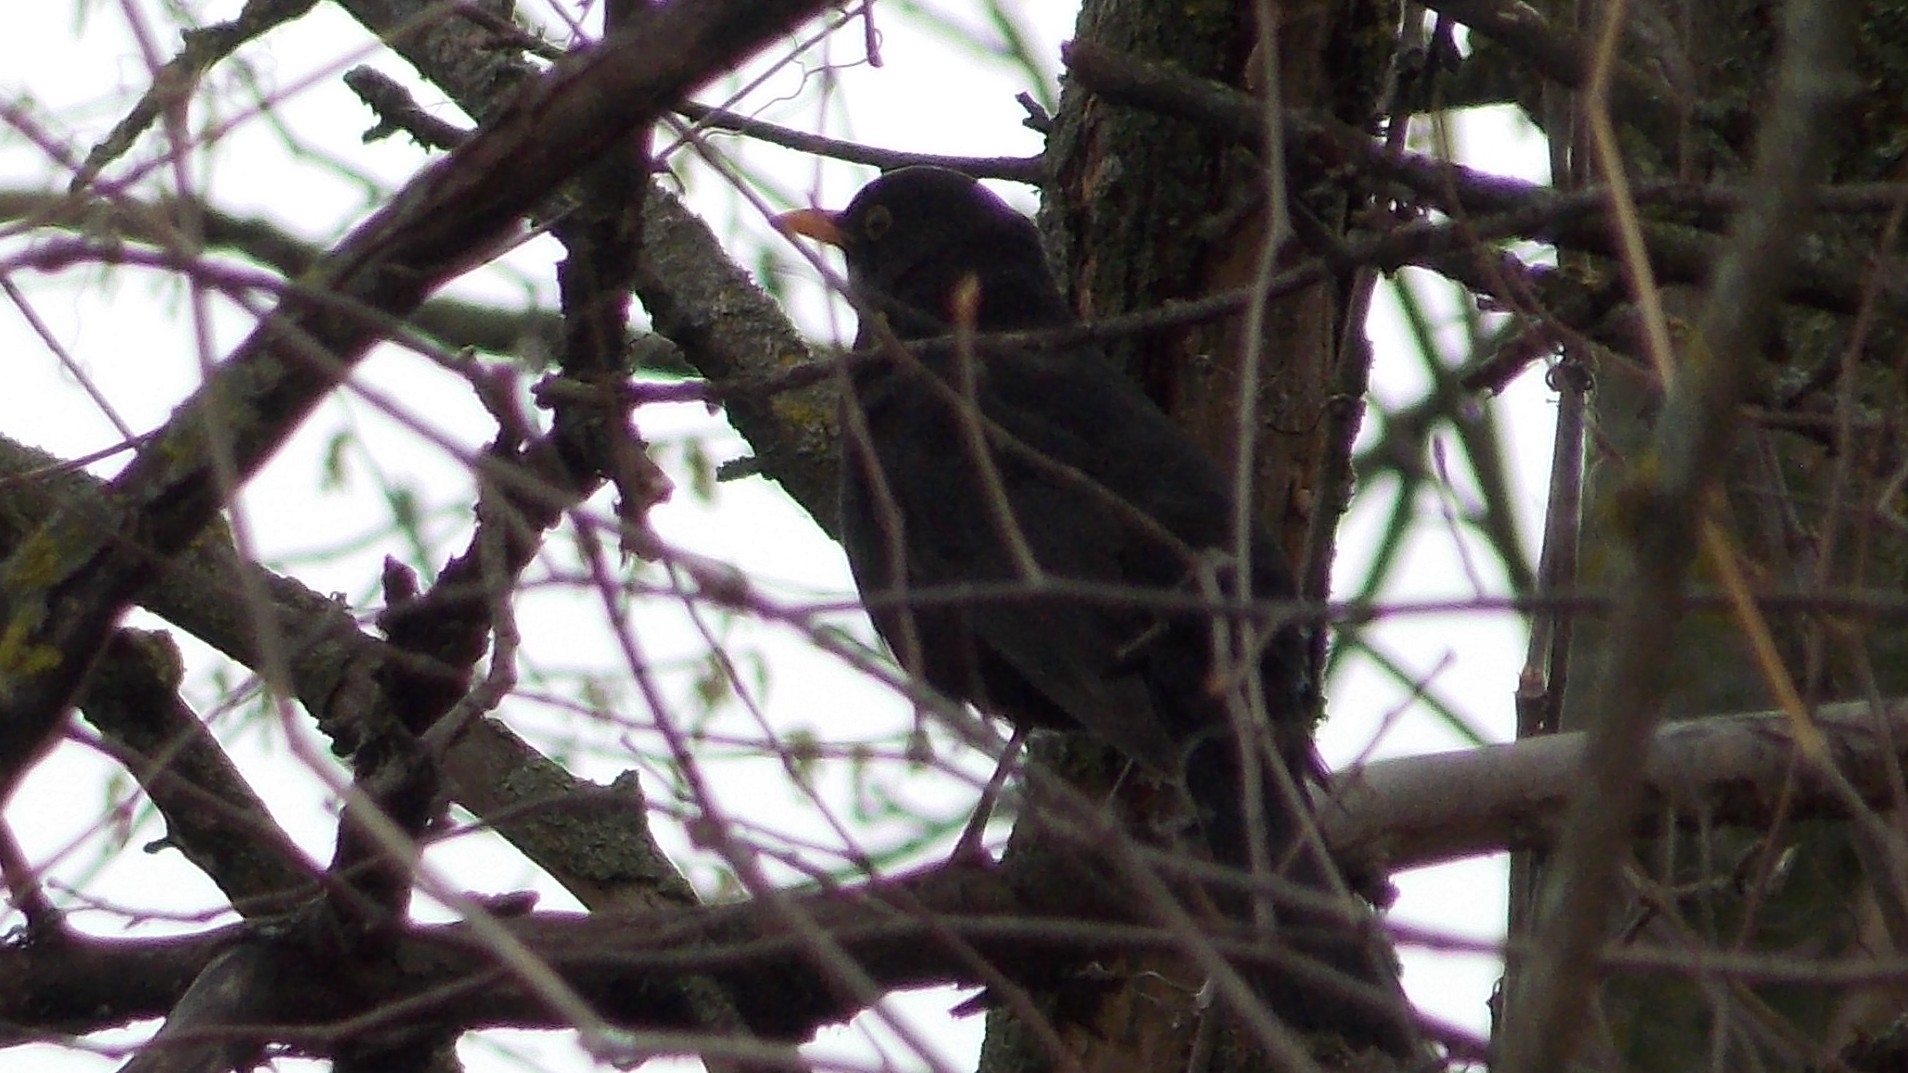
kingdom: Animalia
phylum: Chordata
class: Aves
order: Passeriformes
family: Turdidae
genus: Turdus
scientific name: Turdus merula
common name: Common blackbird
